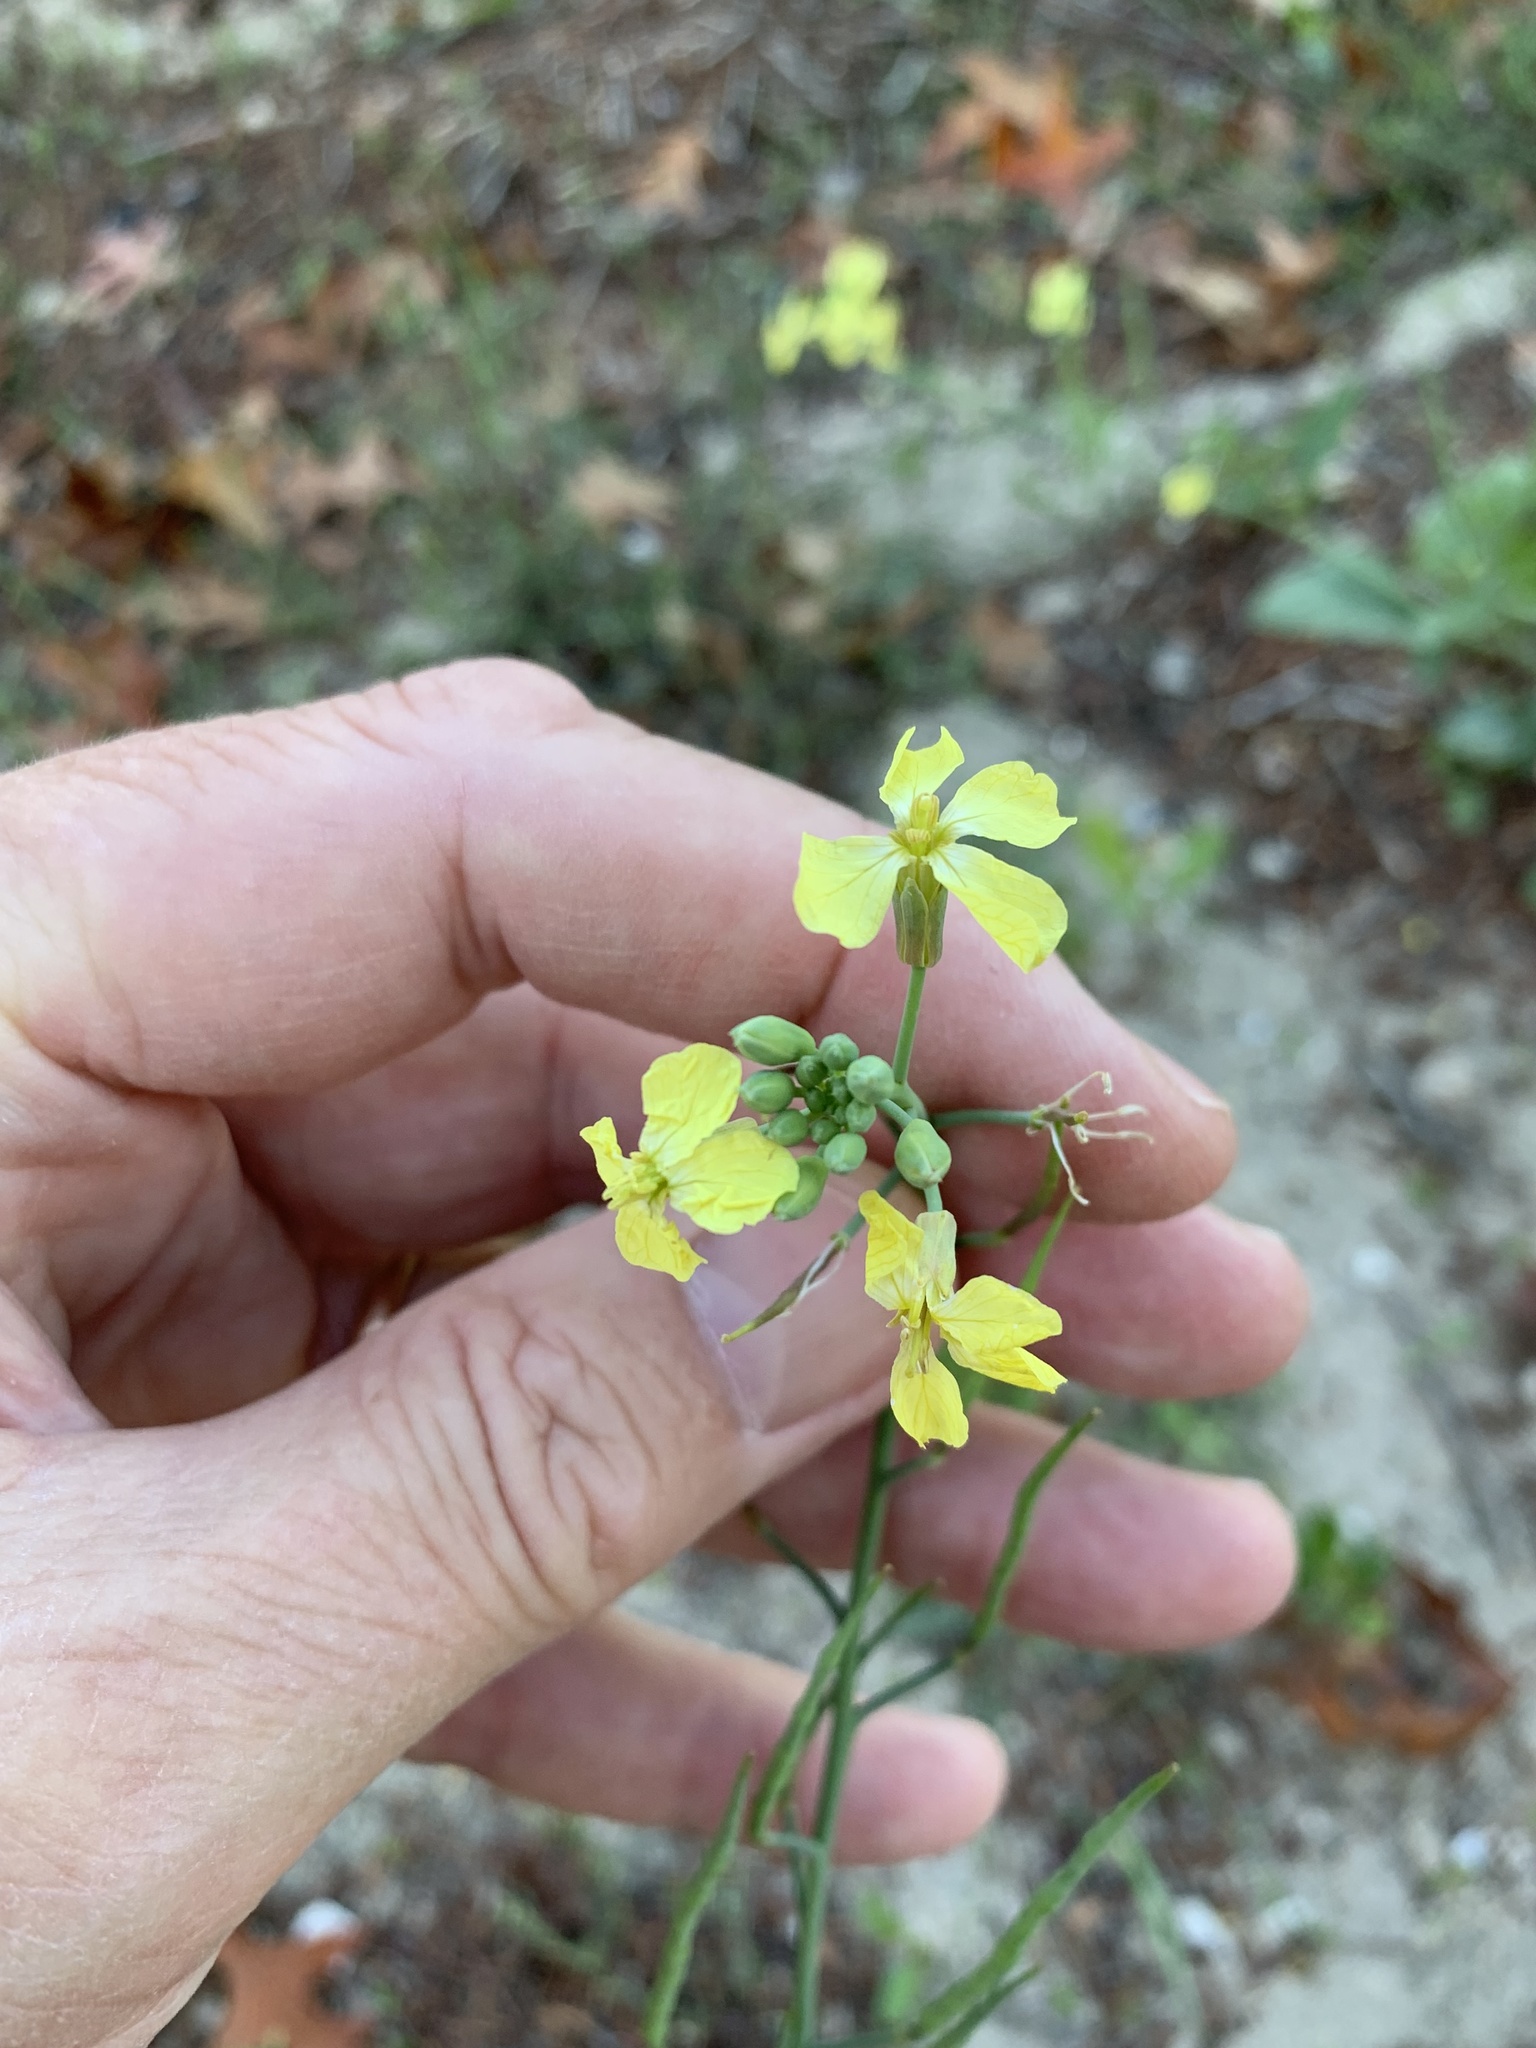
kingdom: Plantae
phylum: Tracheophyta
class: Magnoliopsida
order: Brassicales
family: Brassicaceae
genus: Raphanus
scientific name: Raphanus raphanistrum
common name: Wild radish
